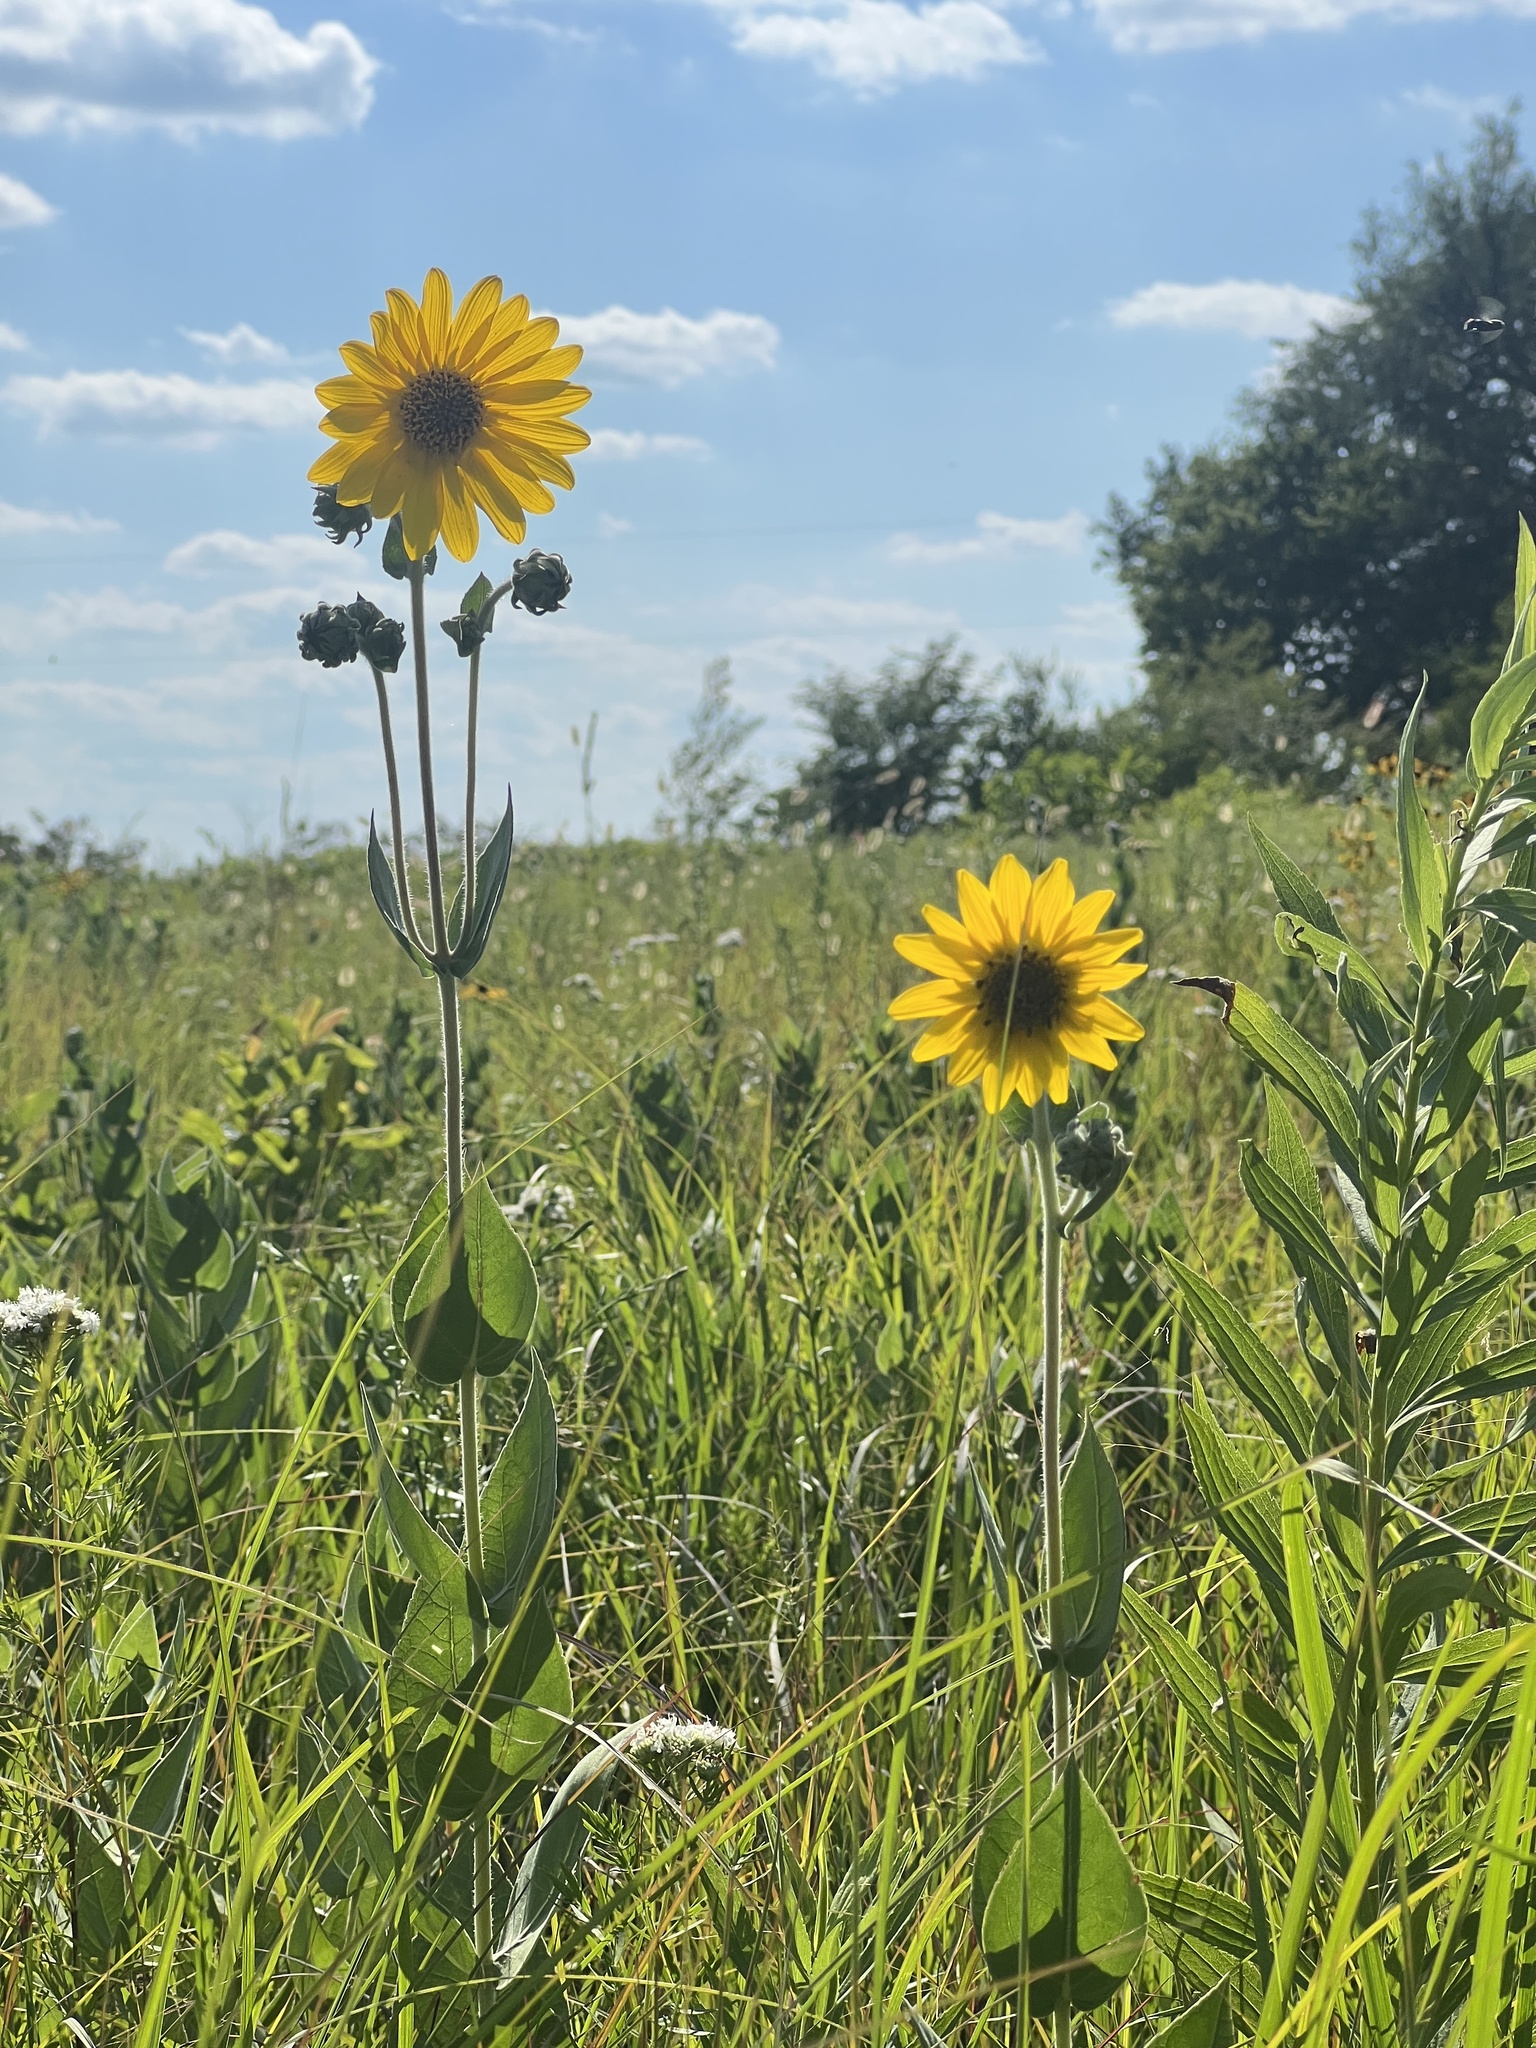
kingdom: Plantae
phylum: Tracheophyta
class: Magnoliopsida
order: Asterales
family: Asteraceae
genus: Helianthus
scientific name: Helianthus mollis
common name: Ashy sunflower
